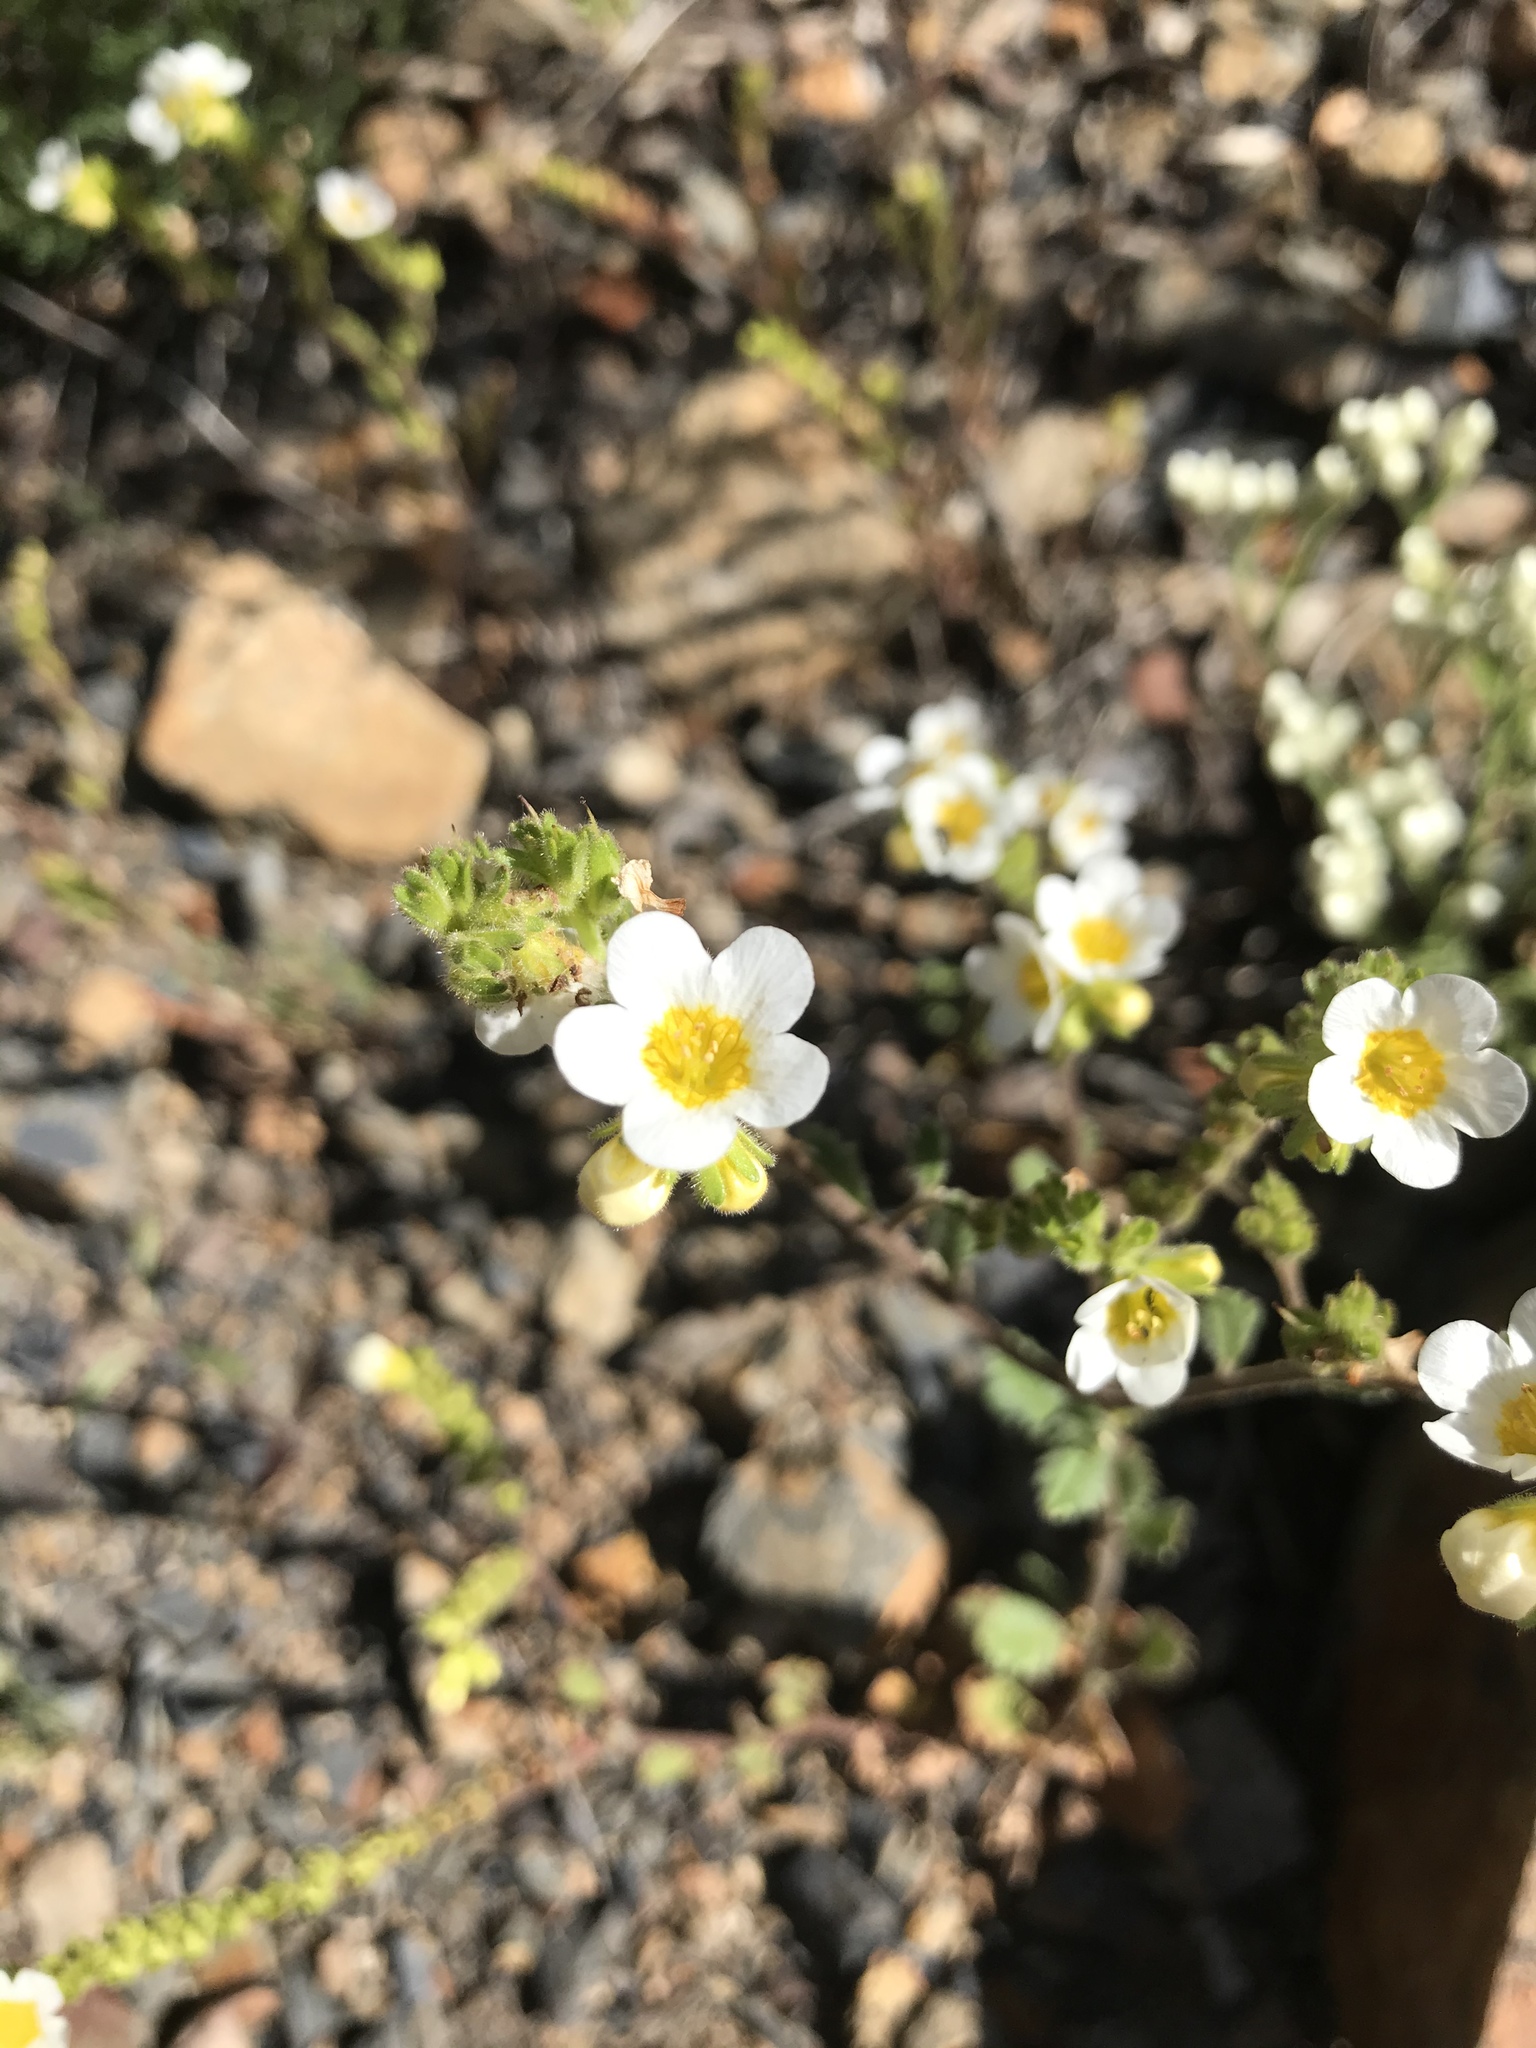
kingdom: Plantae
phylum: Tracheophyta
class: Magnoliopsida
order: Boraginales
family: Hydrophyllaceae
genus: Phacelia
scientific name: Phacelia brachyloba
